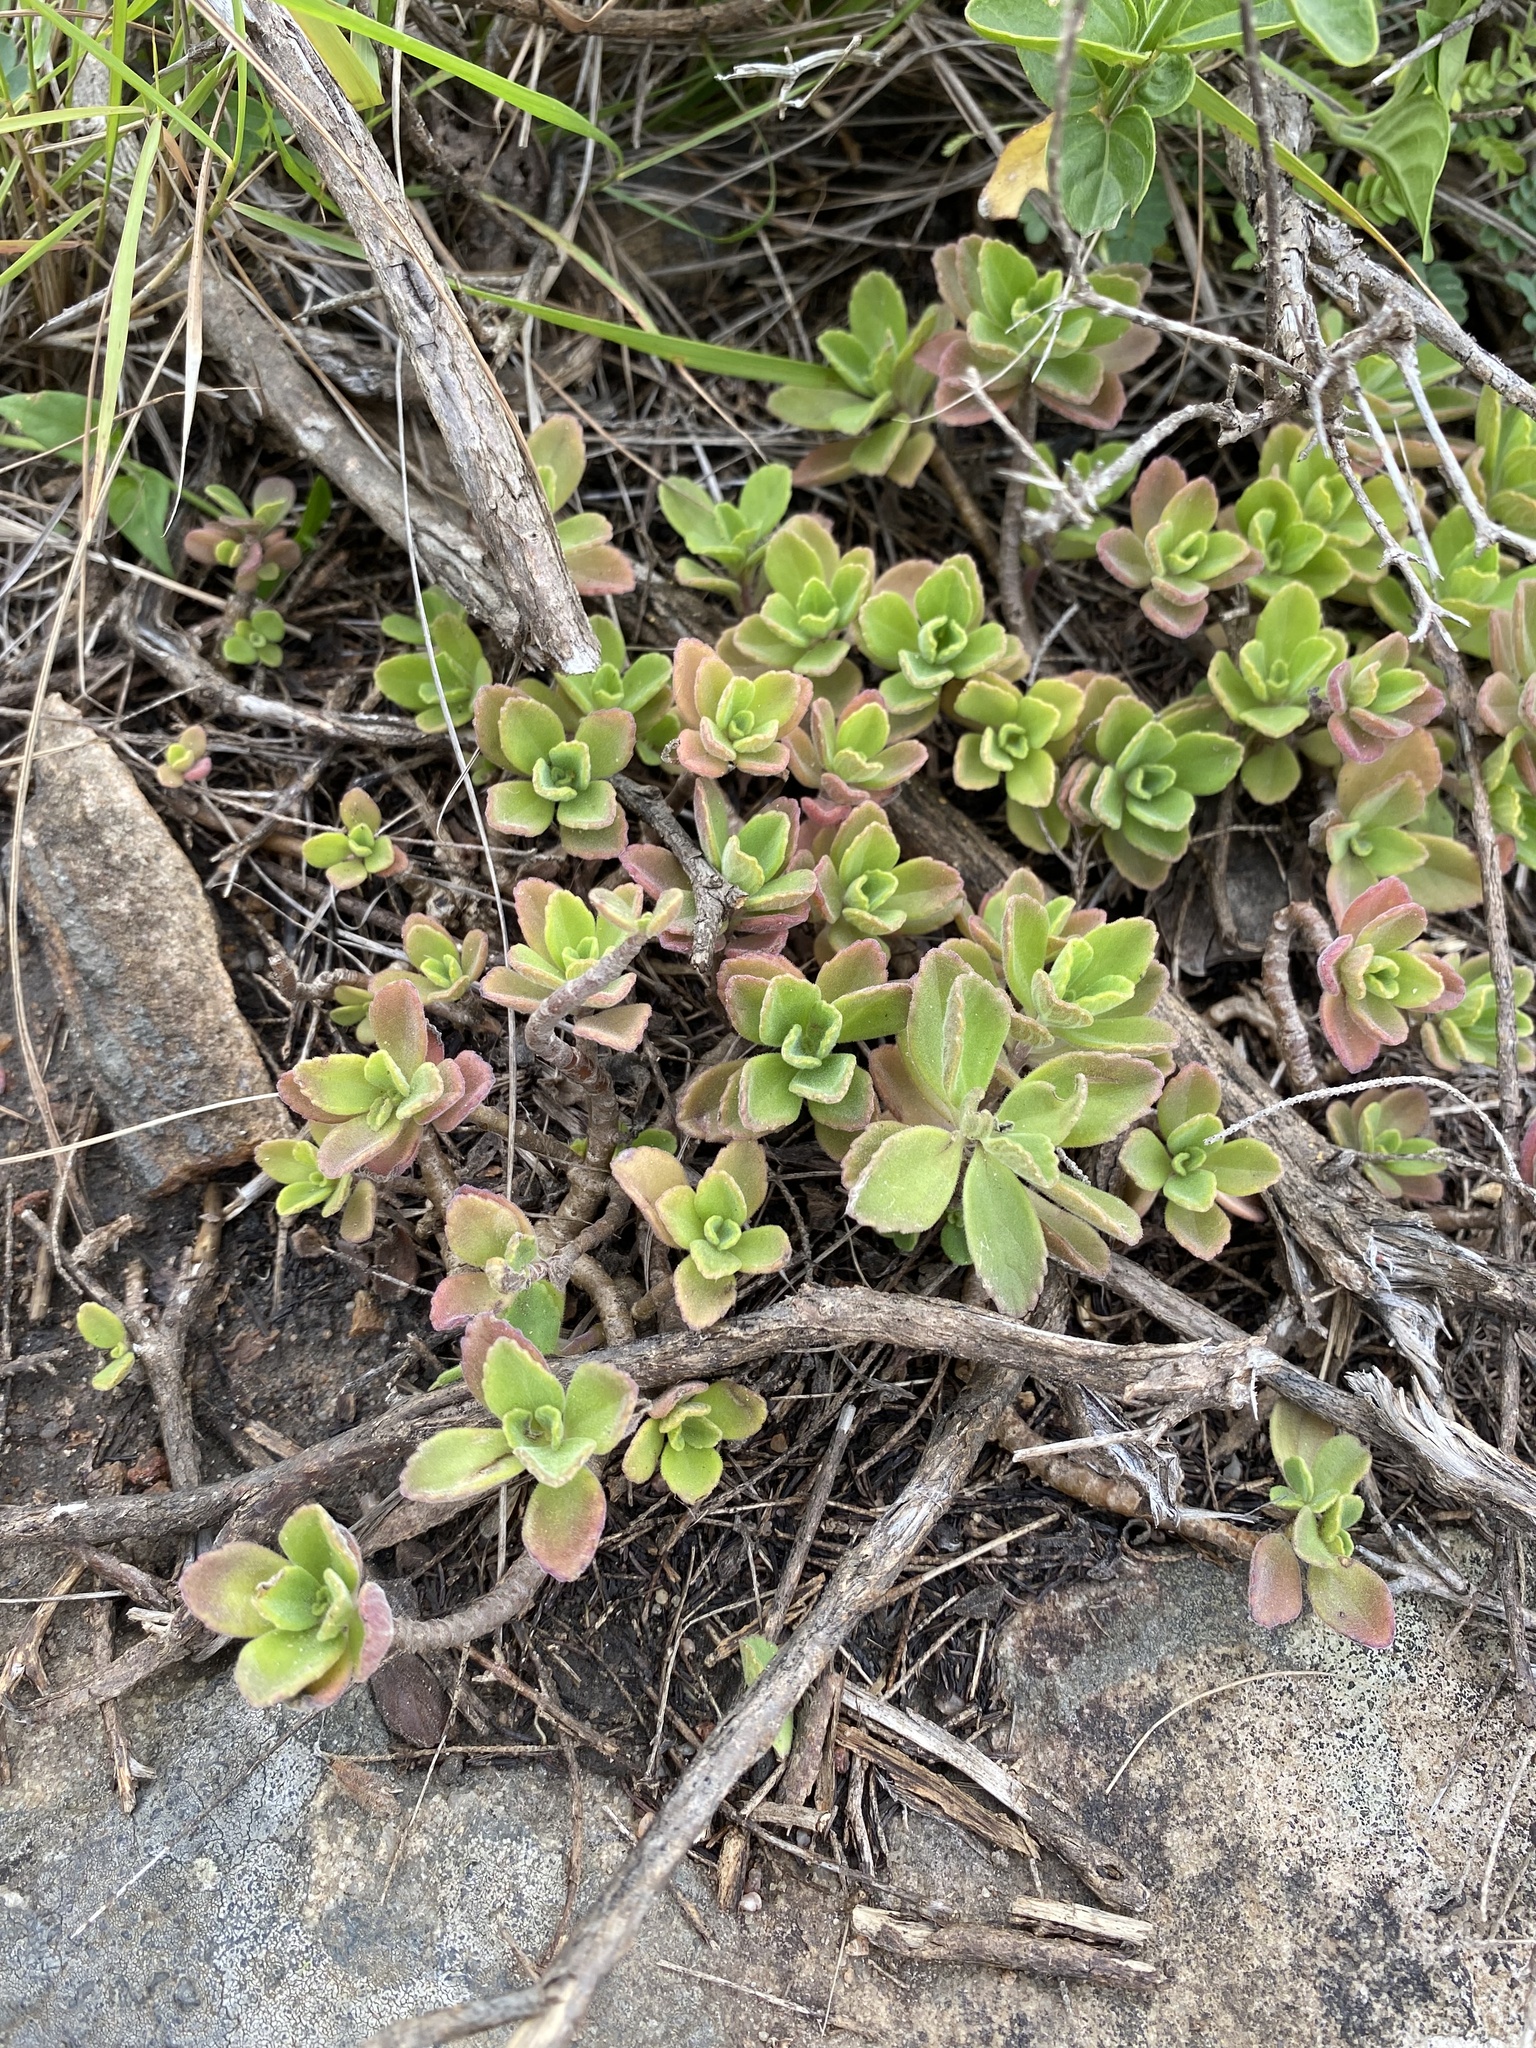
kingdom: Plantae
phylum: Tracheophyta
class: Magnoliopsida
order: Lamiales
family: Lamiaceae
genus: Coleus
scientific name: Coleus neochilus
